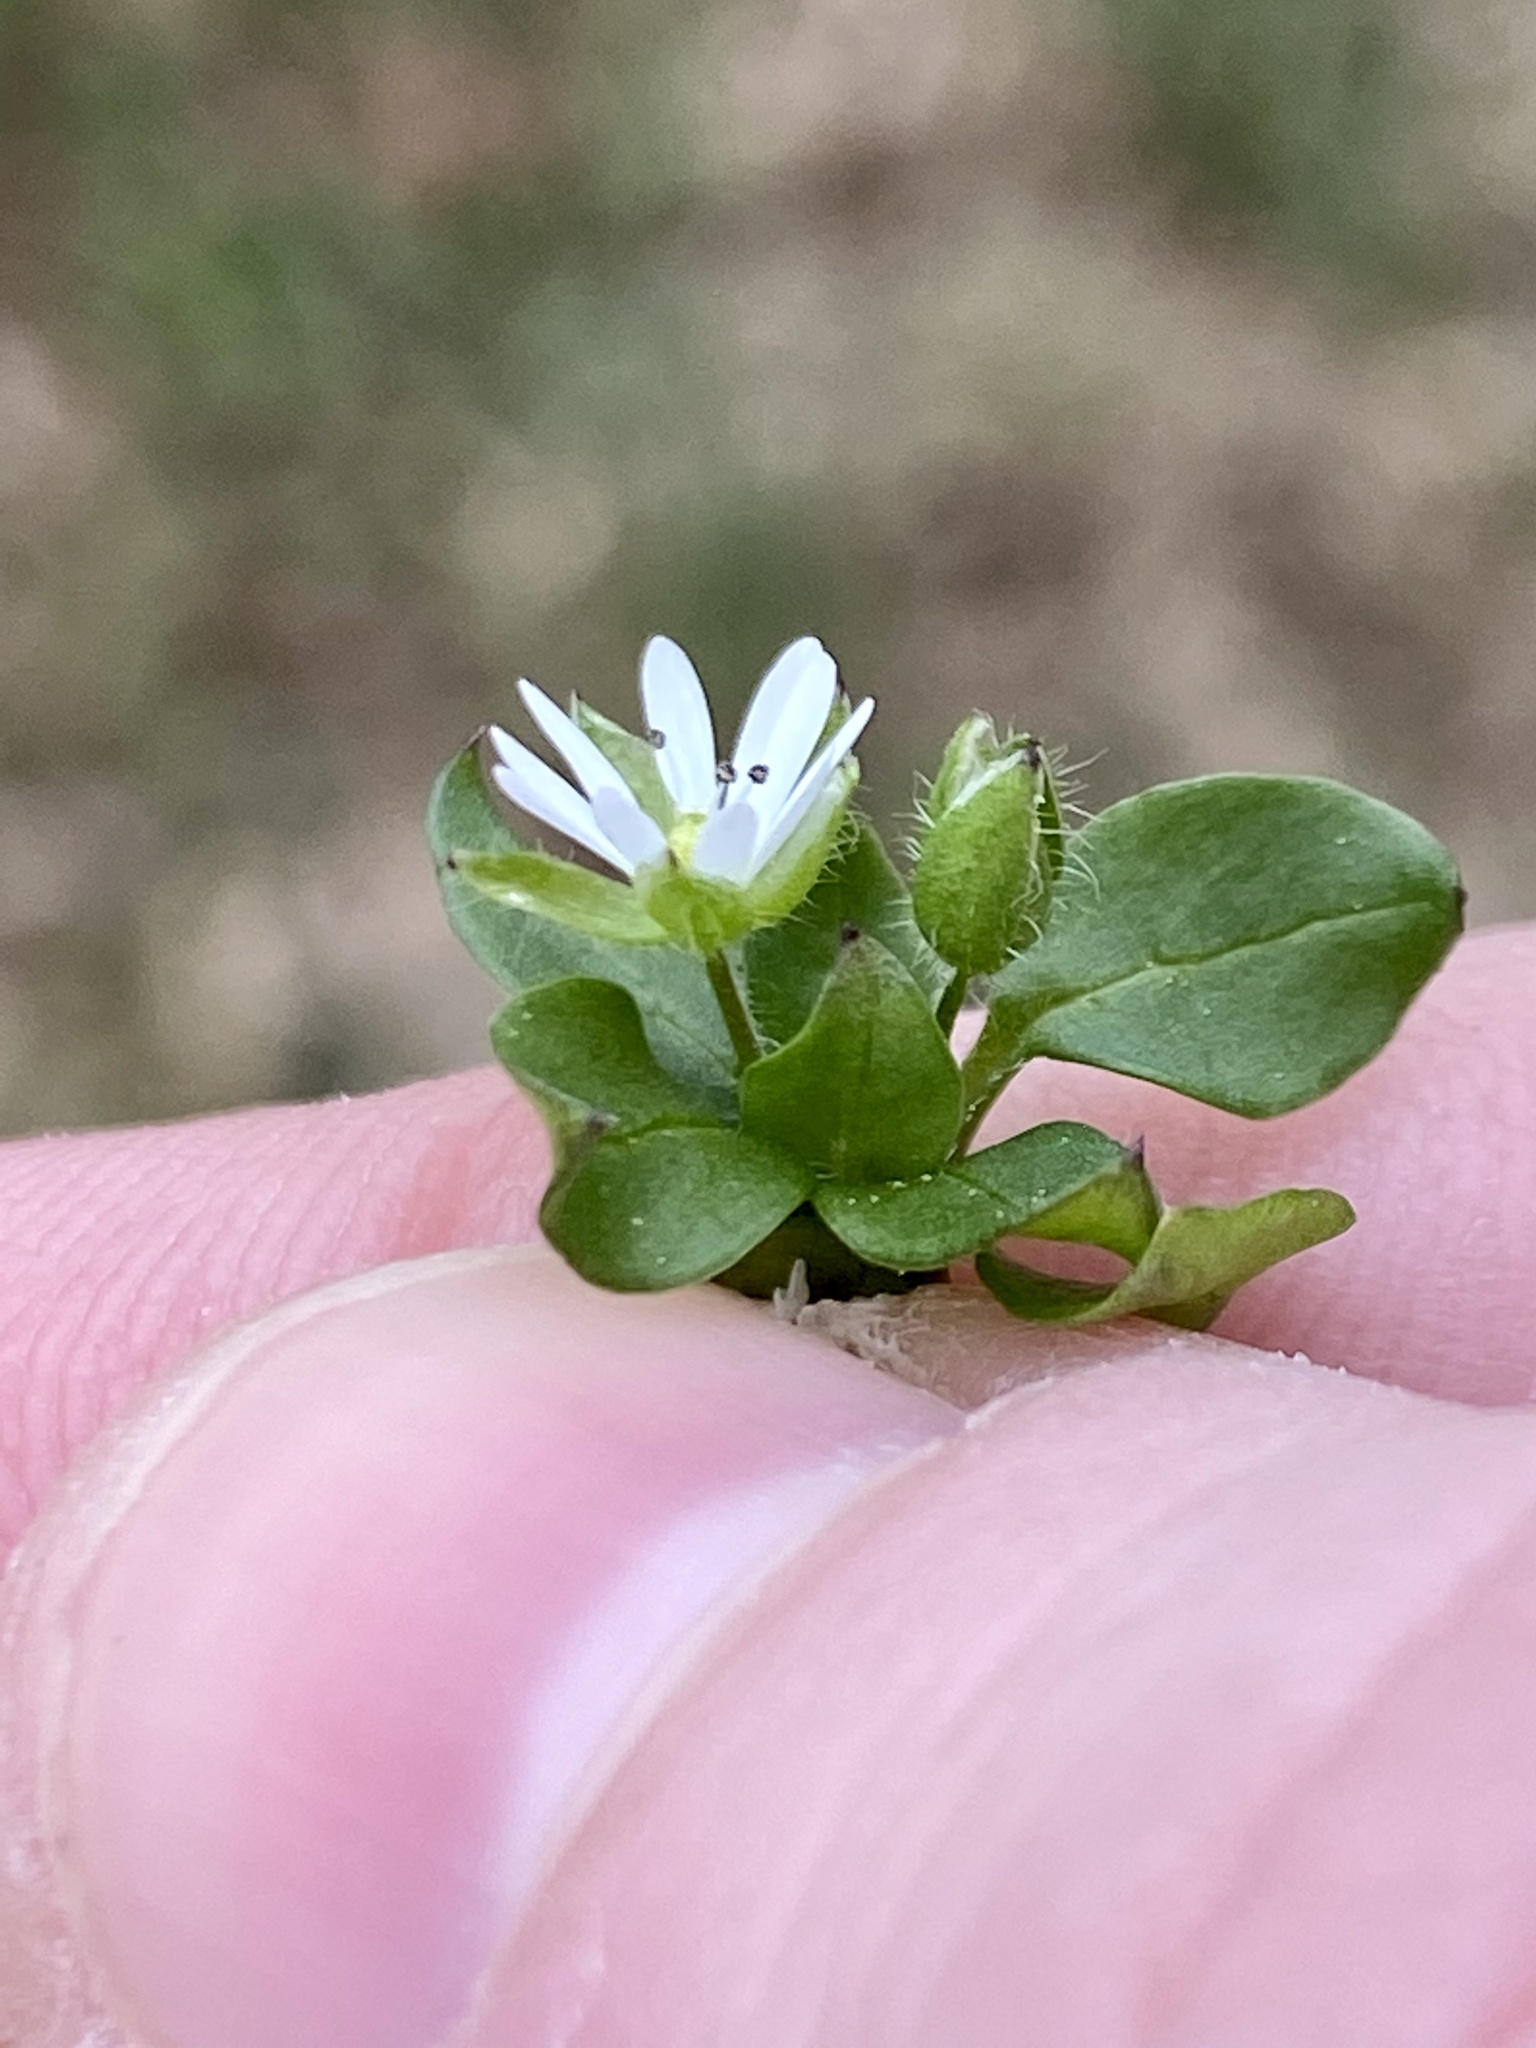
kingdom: Plantae
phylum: Tracheophyta
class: Magnoliopsida
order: Caryophyllales
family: Caryophyllaceae
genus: Stellaria
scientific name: Stellaria media
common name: Common chickweed
